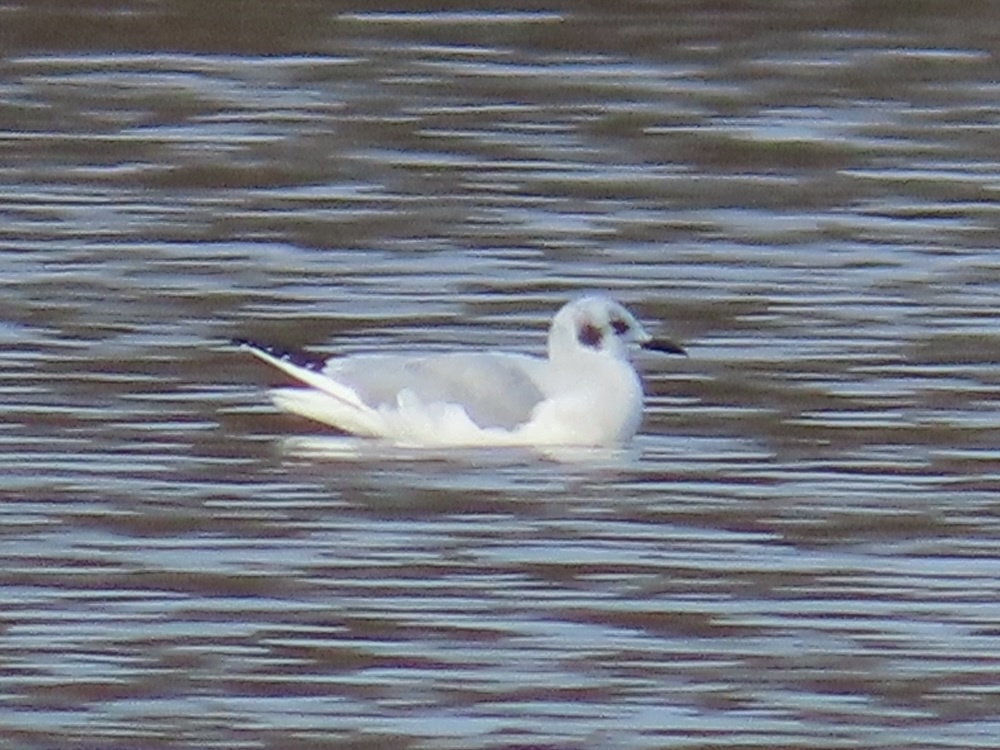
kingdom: Animalia
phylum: Chordata
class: Aves
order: Charadriiformes
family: Laridae
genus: Chroicocephalus
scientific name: Chroicocephalus philadelphia
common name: Bonaparte's gull
